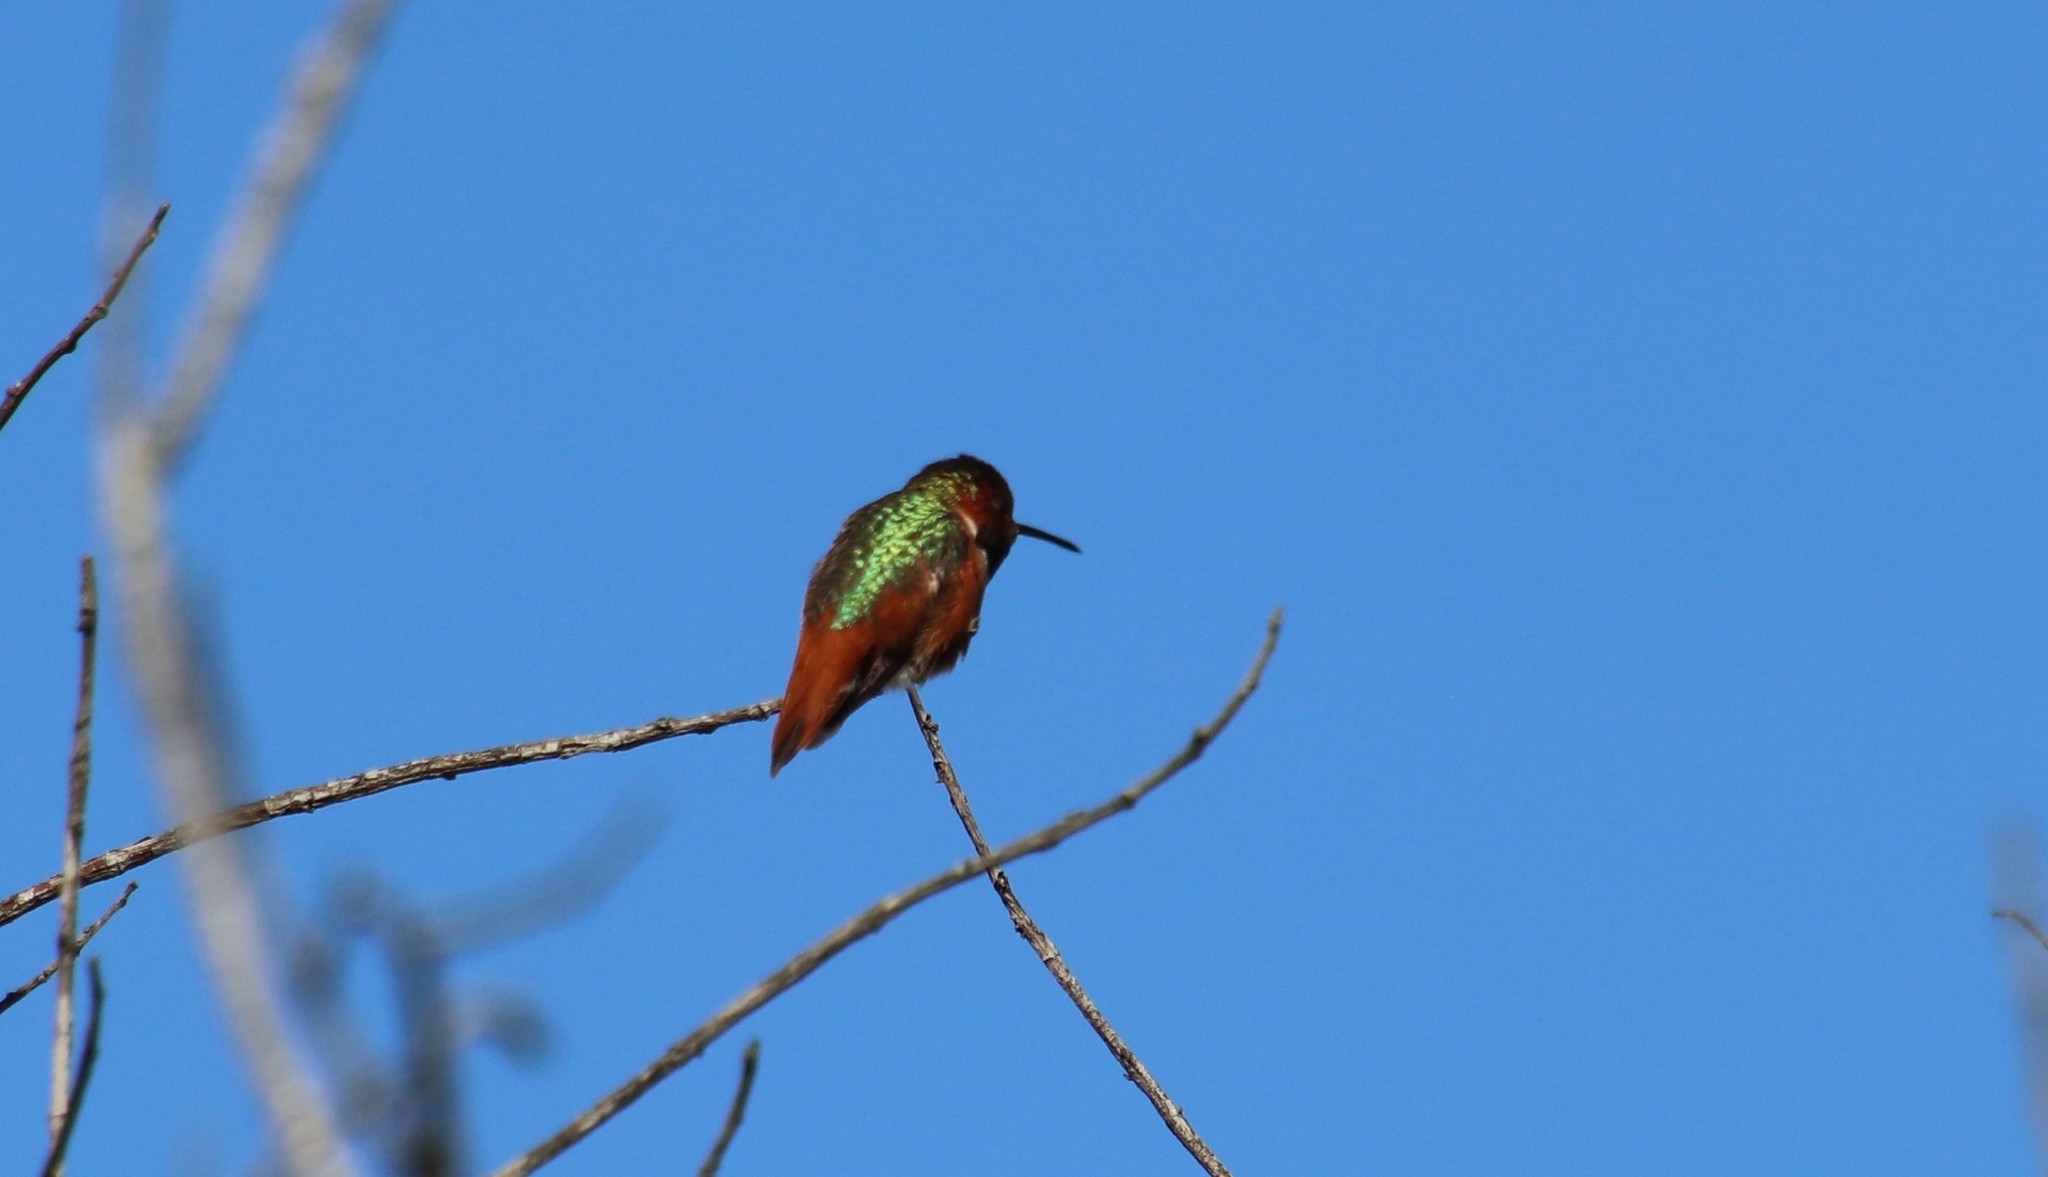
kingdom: Animalia
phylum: Chordata
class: Aves
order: Apodiformes
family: Trochilidae
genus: Selasphorus
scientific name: Selasphorus sasin
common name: Allen's hummingbird
